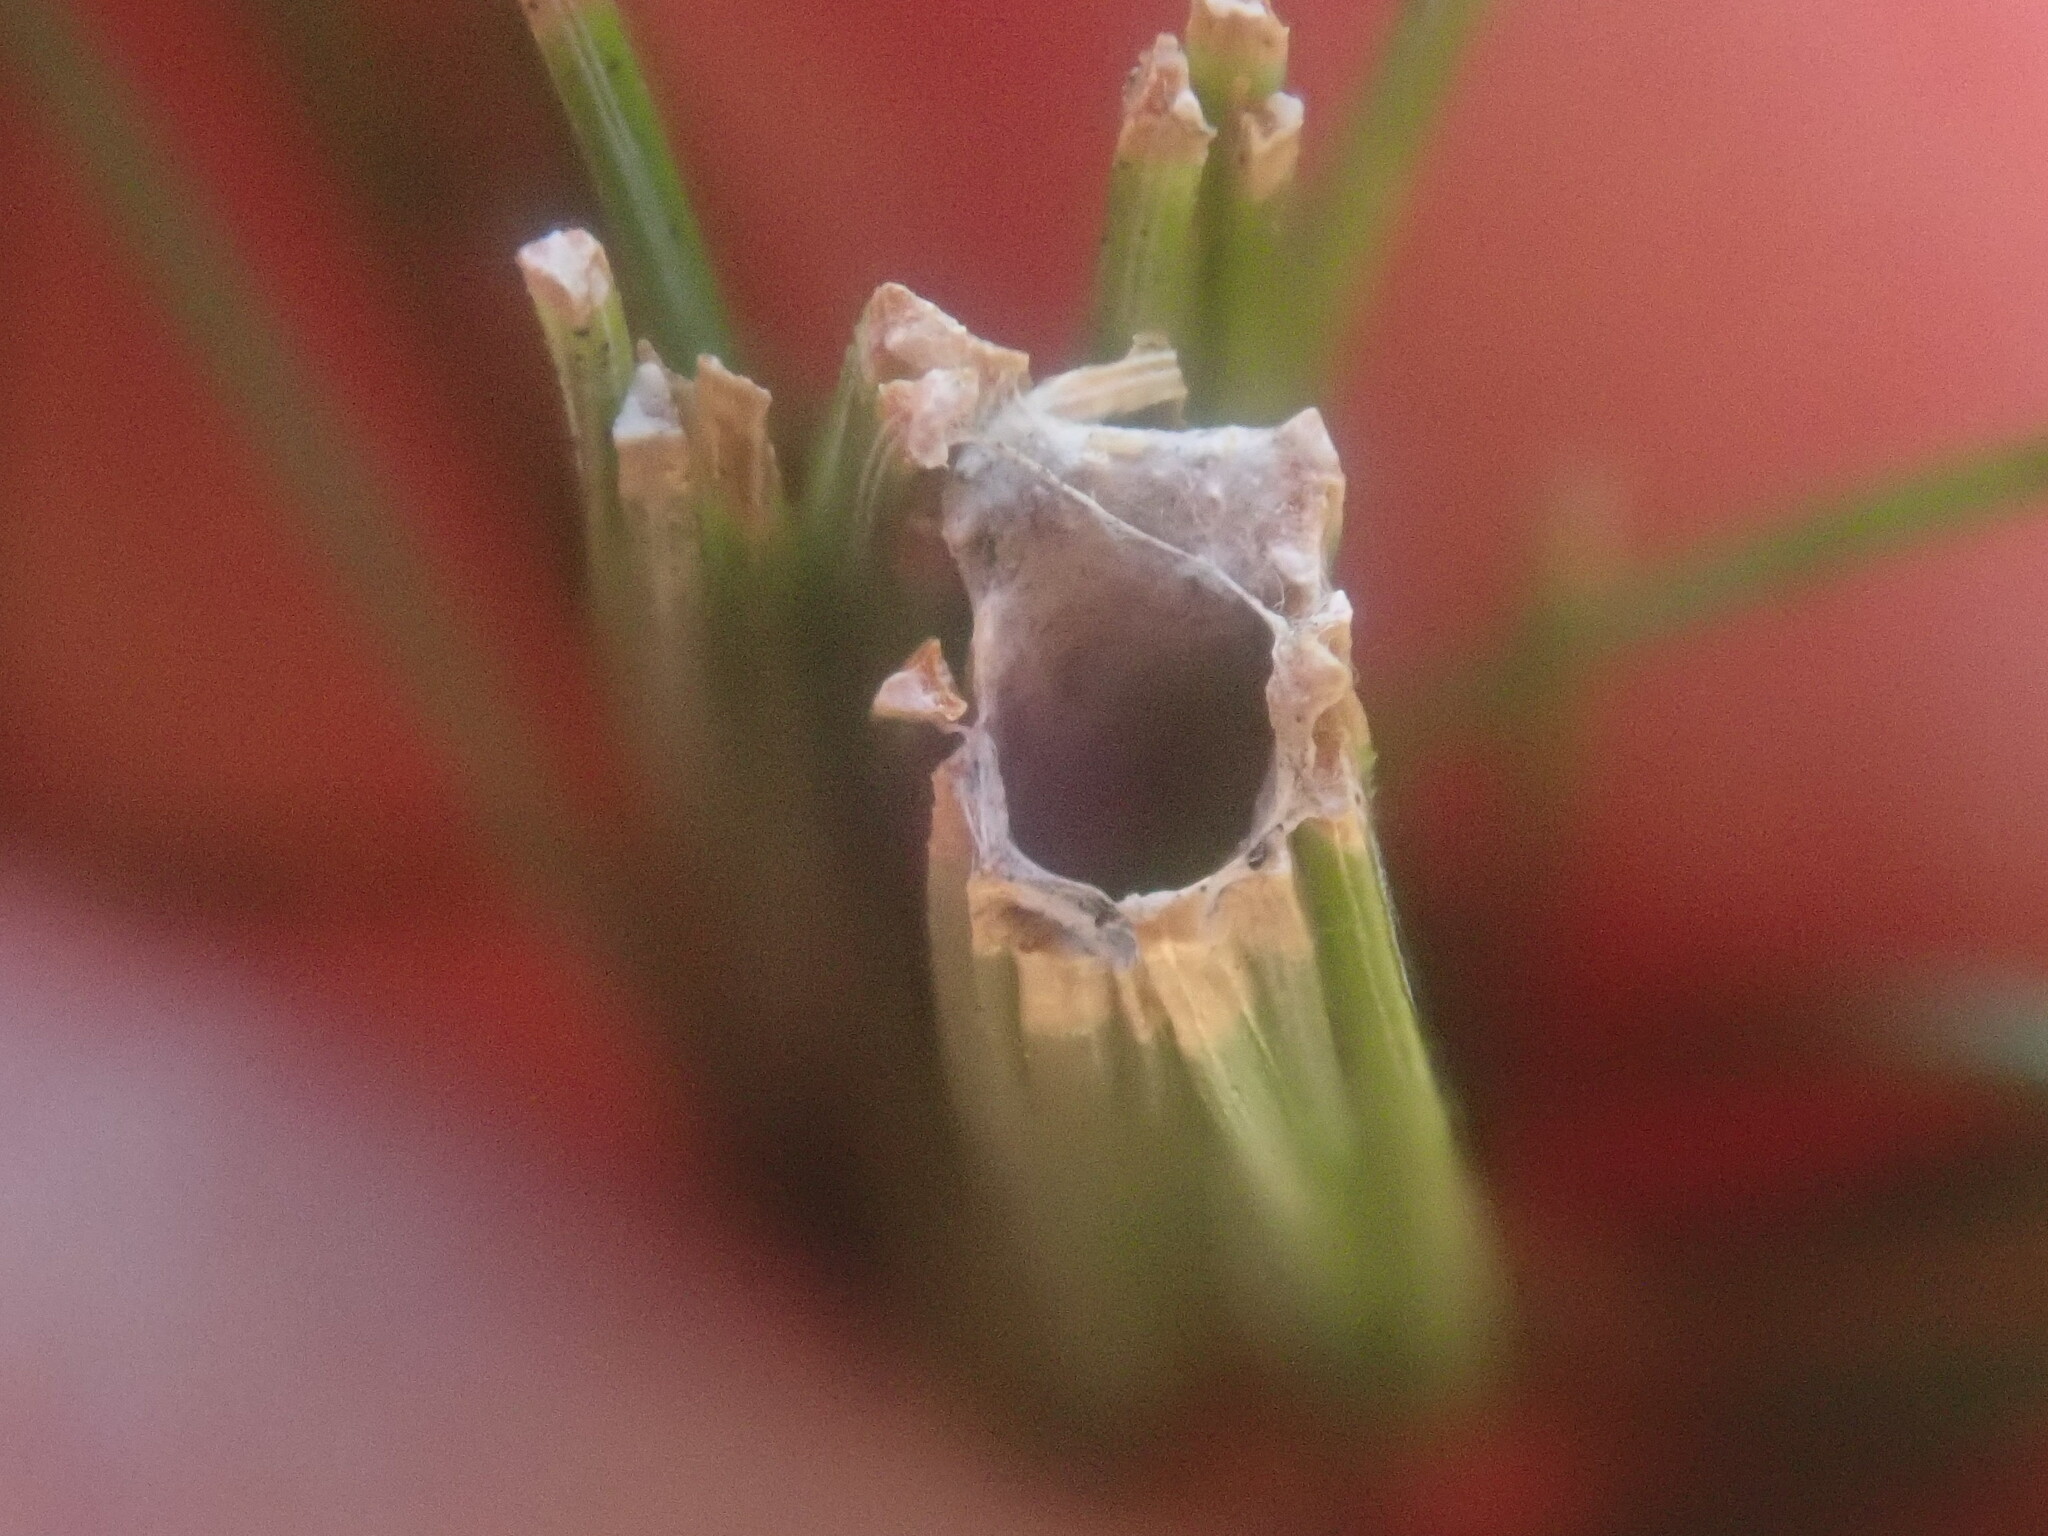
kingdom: Animalia
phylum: Arthropoda
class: Insecta
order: Lepidoptera
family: Tortricidae
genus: Argyrotaenia
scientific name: Argyrotaenia pinatubana
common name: Pine tube moth
